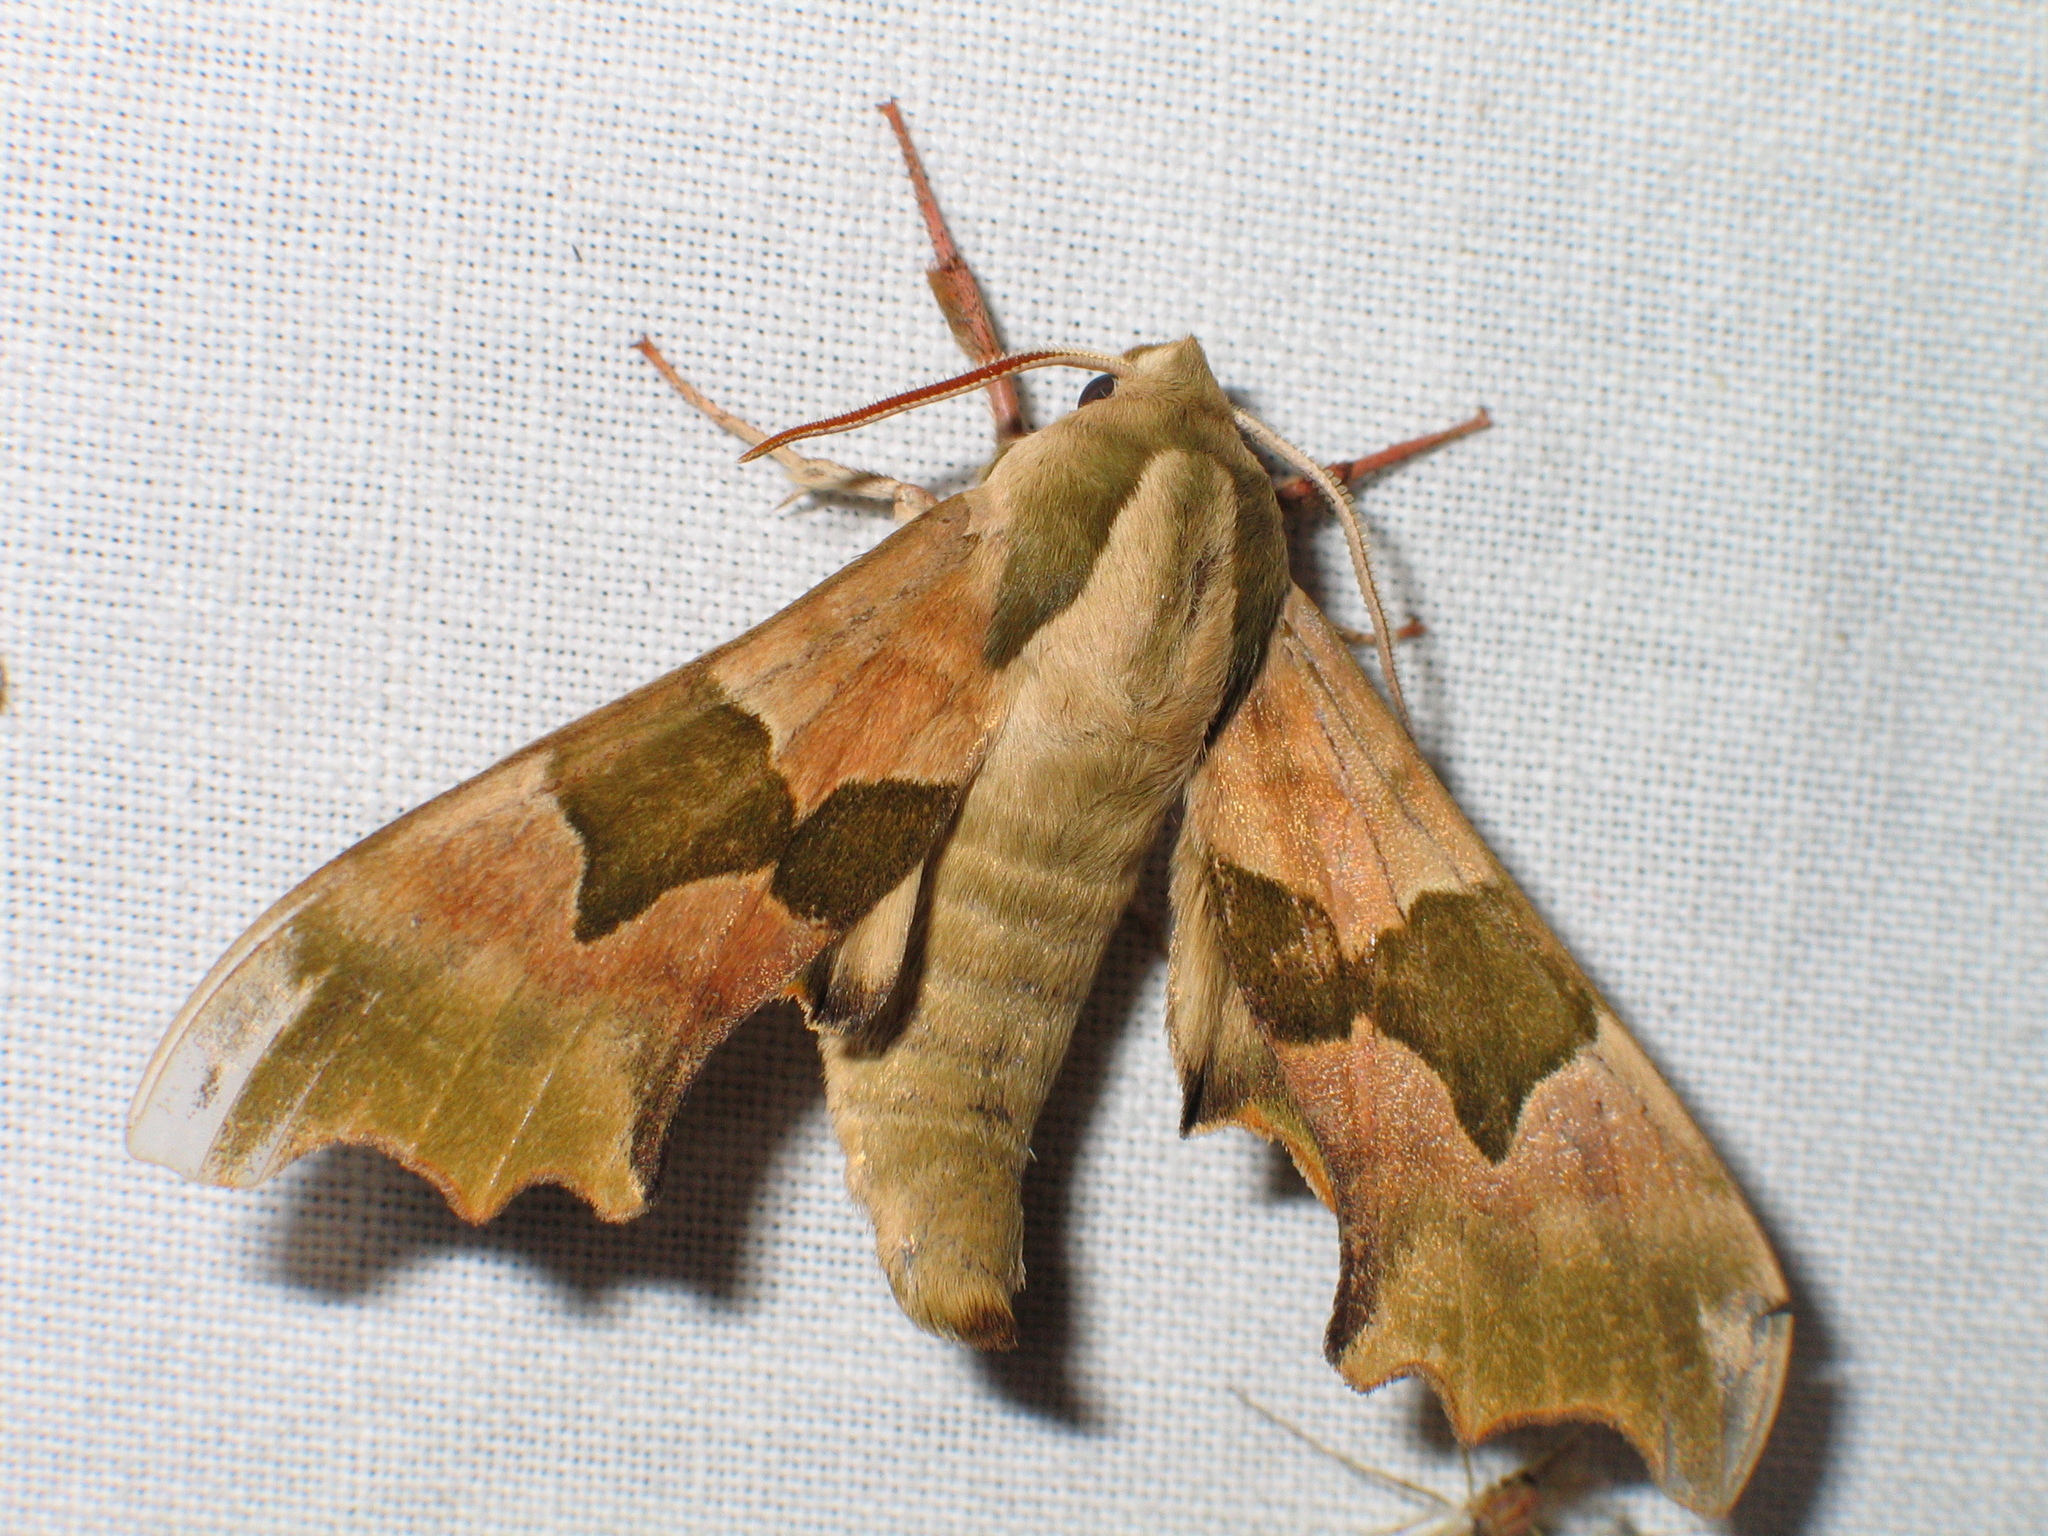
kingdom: Animalia
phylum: Arthropoda
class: Insecta
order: Lepidoptera
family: Sphingidae
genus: Mimas
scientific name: Mimas tiliae
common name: Lime hawk-moth
